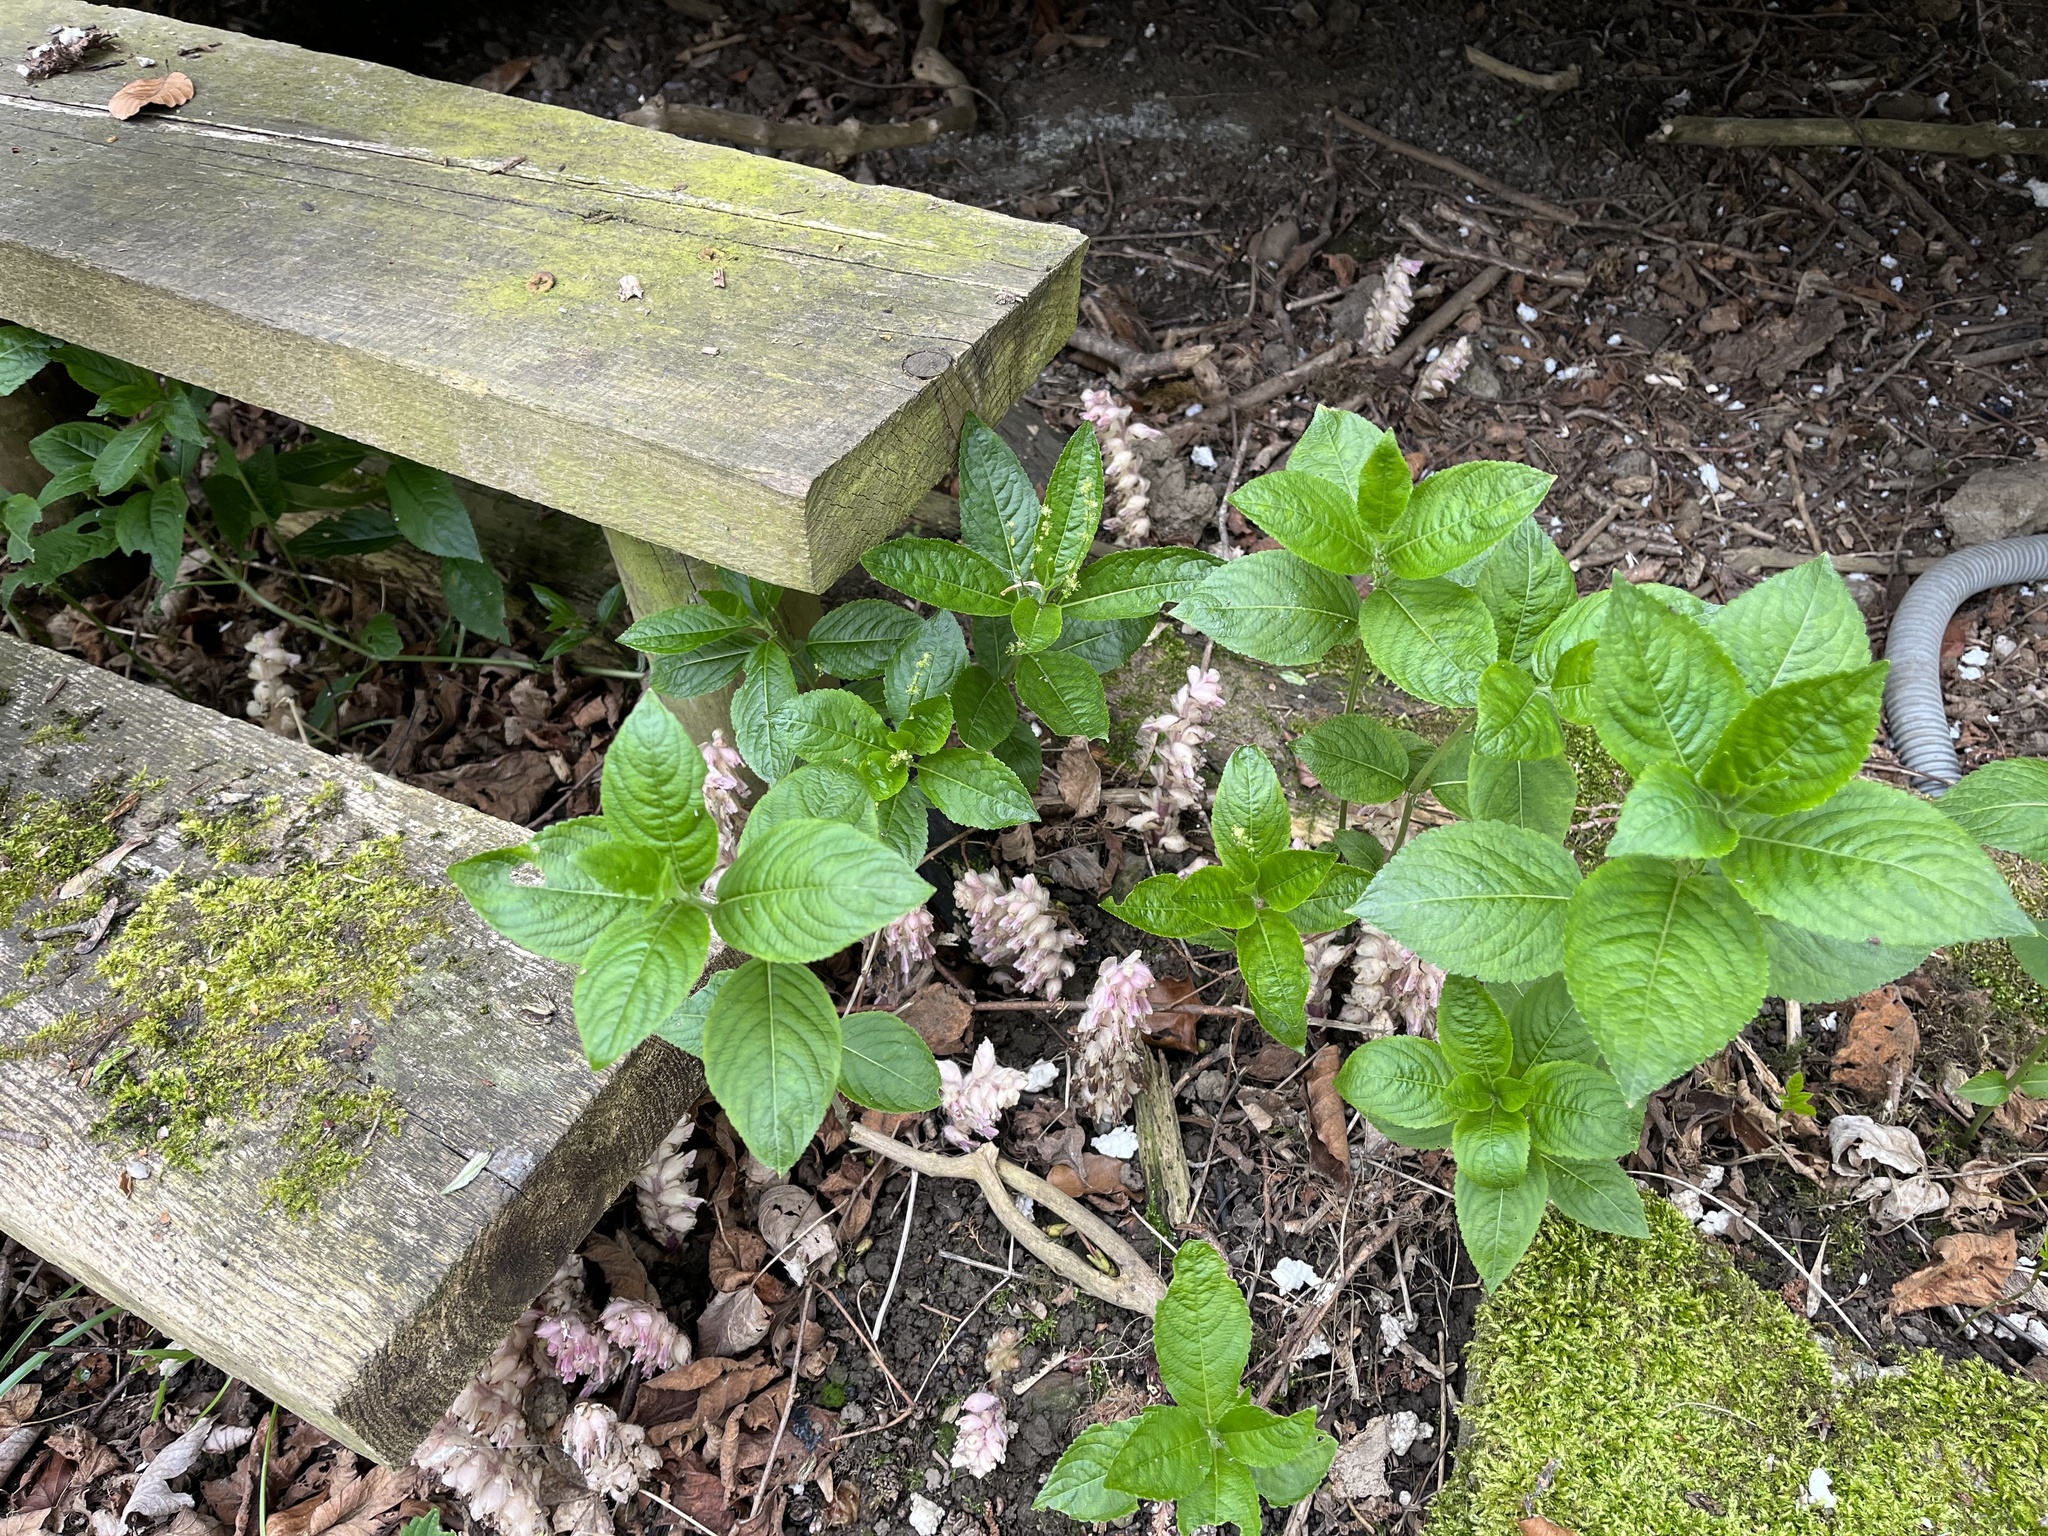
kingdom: Plantae
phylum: Tracheophyta
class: Magnoliopsida
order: Lamiales
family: Orobanchaceae
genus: Lathraea
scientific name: Lathraea squamaria
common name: Toothwort
